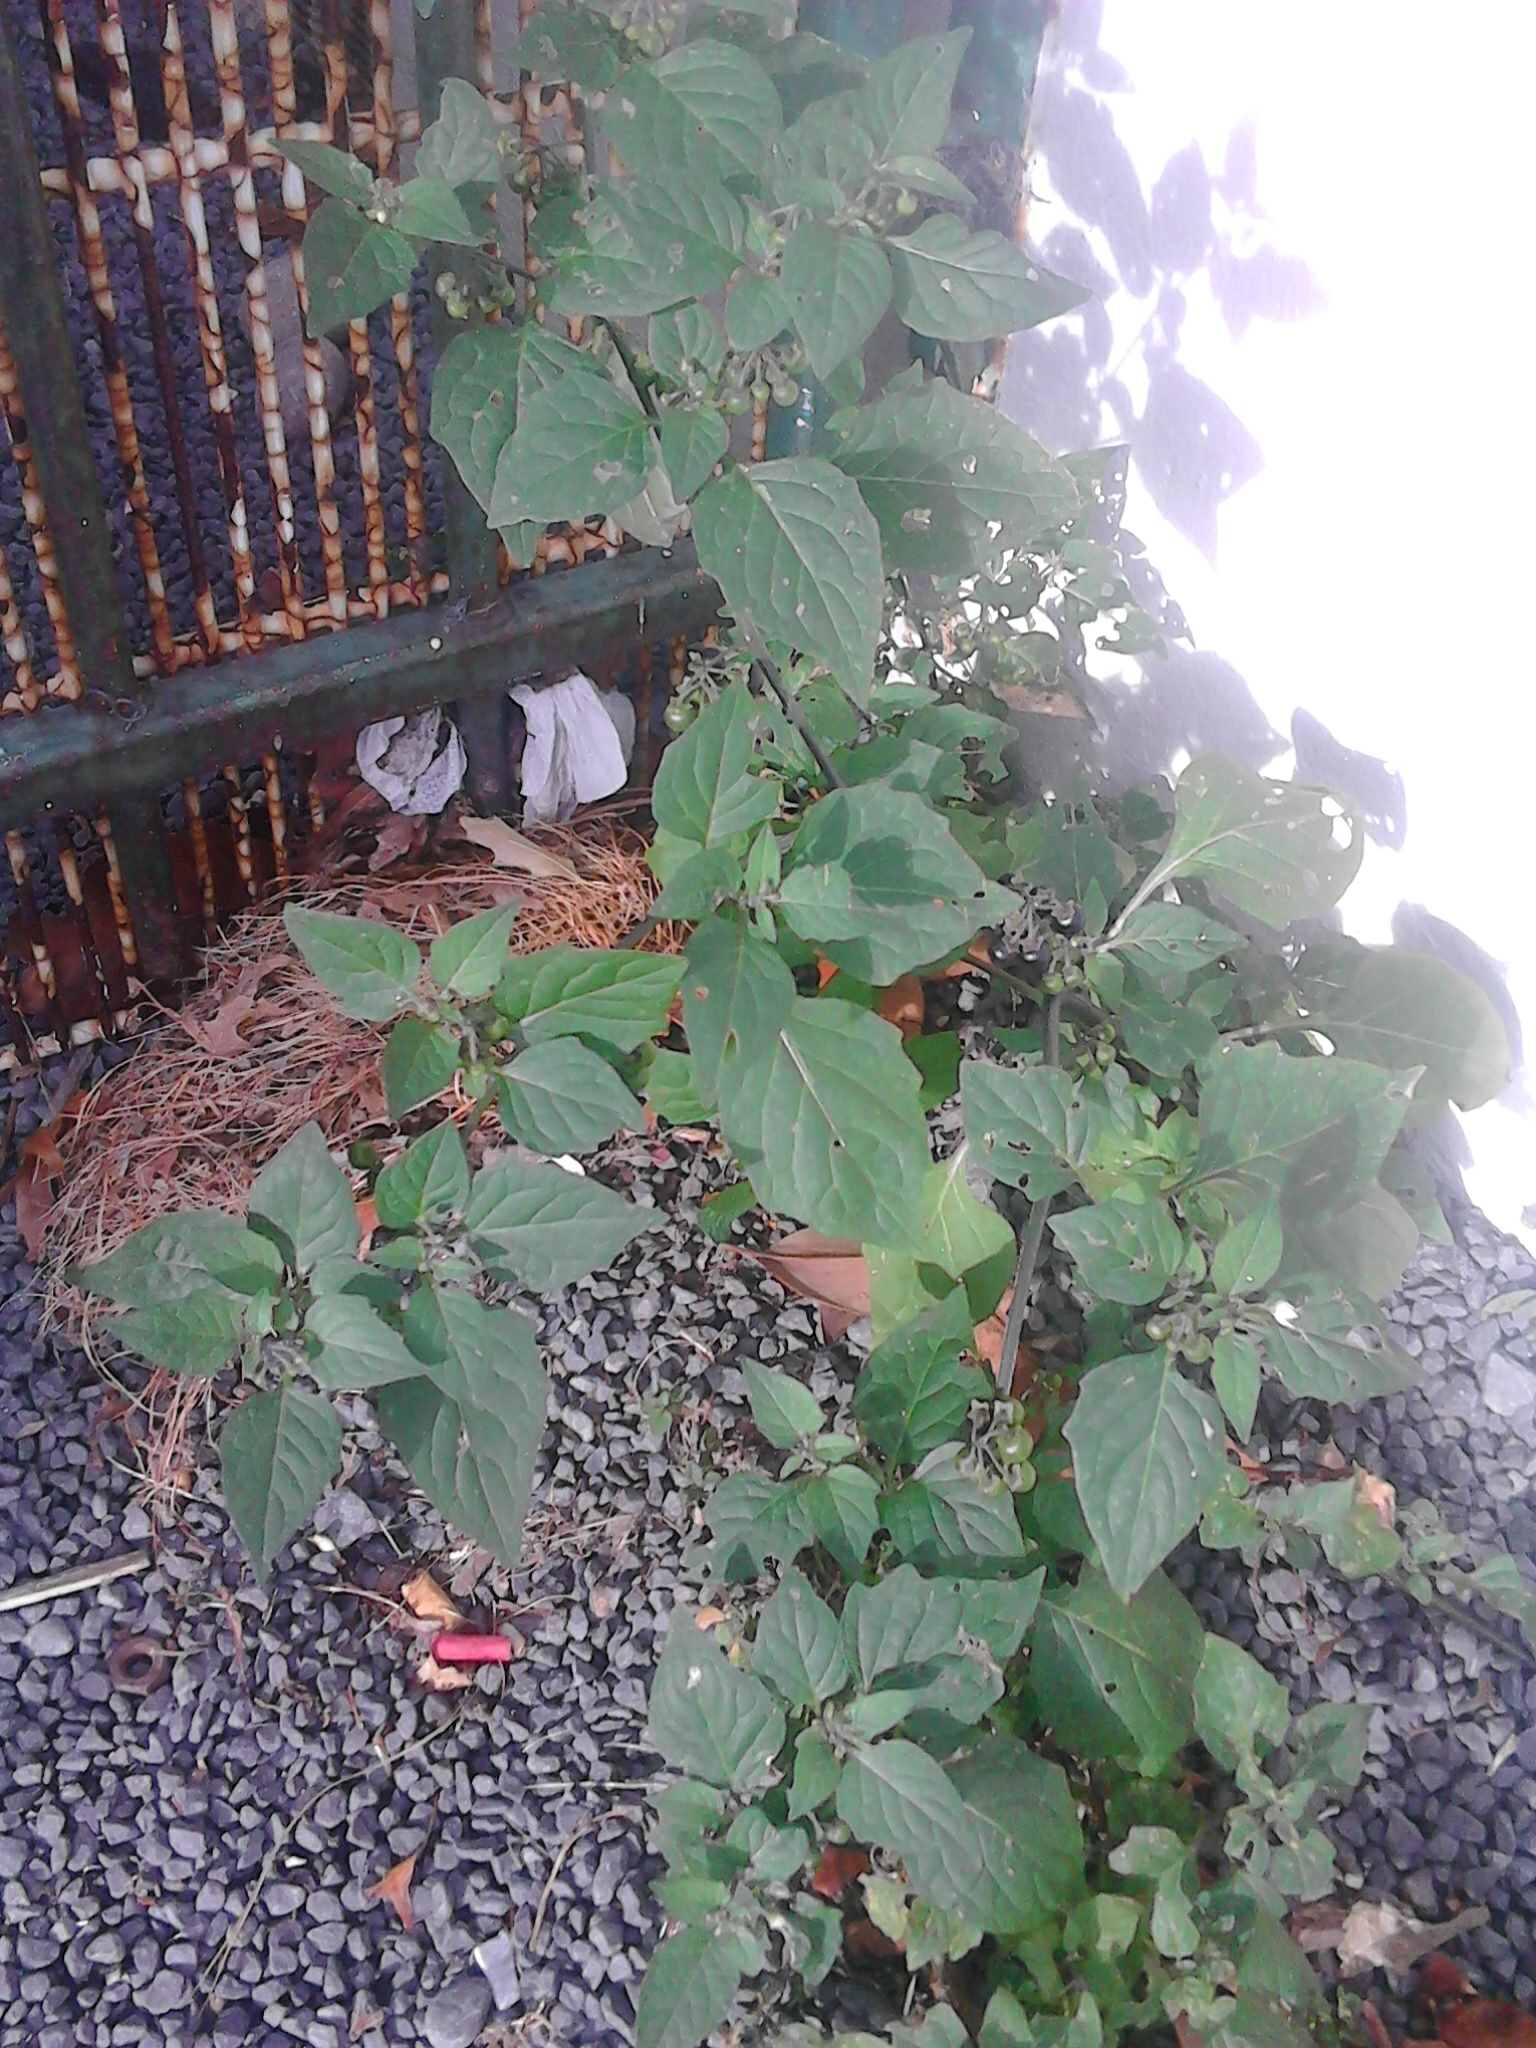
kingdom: Plantae
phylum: Tracheophyta
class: Magnoliopsida
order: Solanales
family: Solanaceae
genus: Solanum
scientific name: Solanum nigrum
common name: Black nightshade
